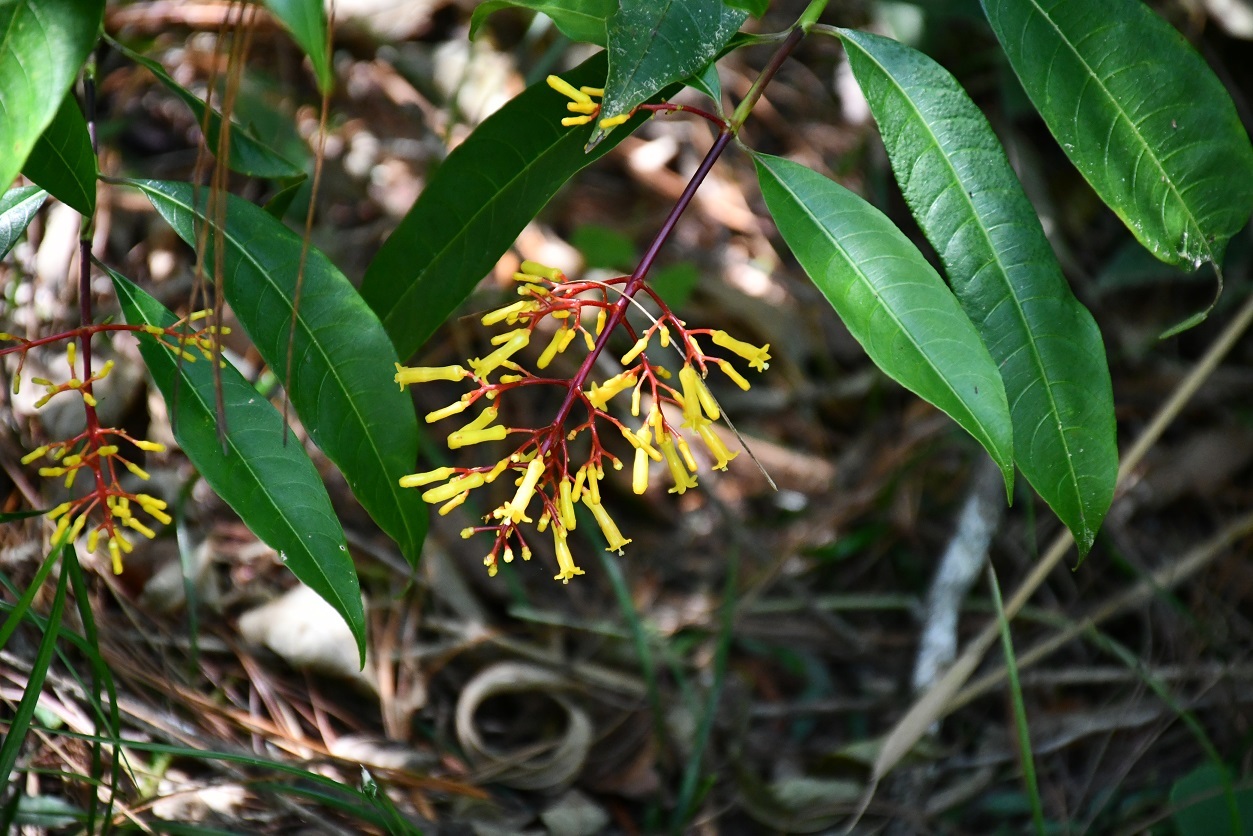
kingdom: Plantae
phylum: Tracheophyta
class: Magnoliopsida
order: Gentianales
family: Rubiaceae
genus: Palicourea
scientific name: Palicourea padifolia
